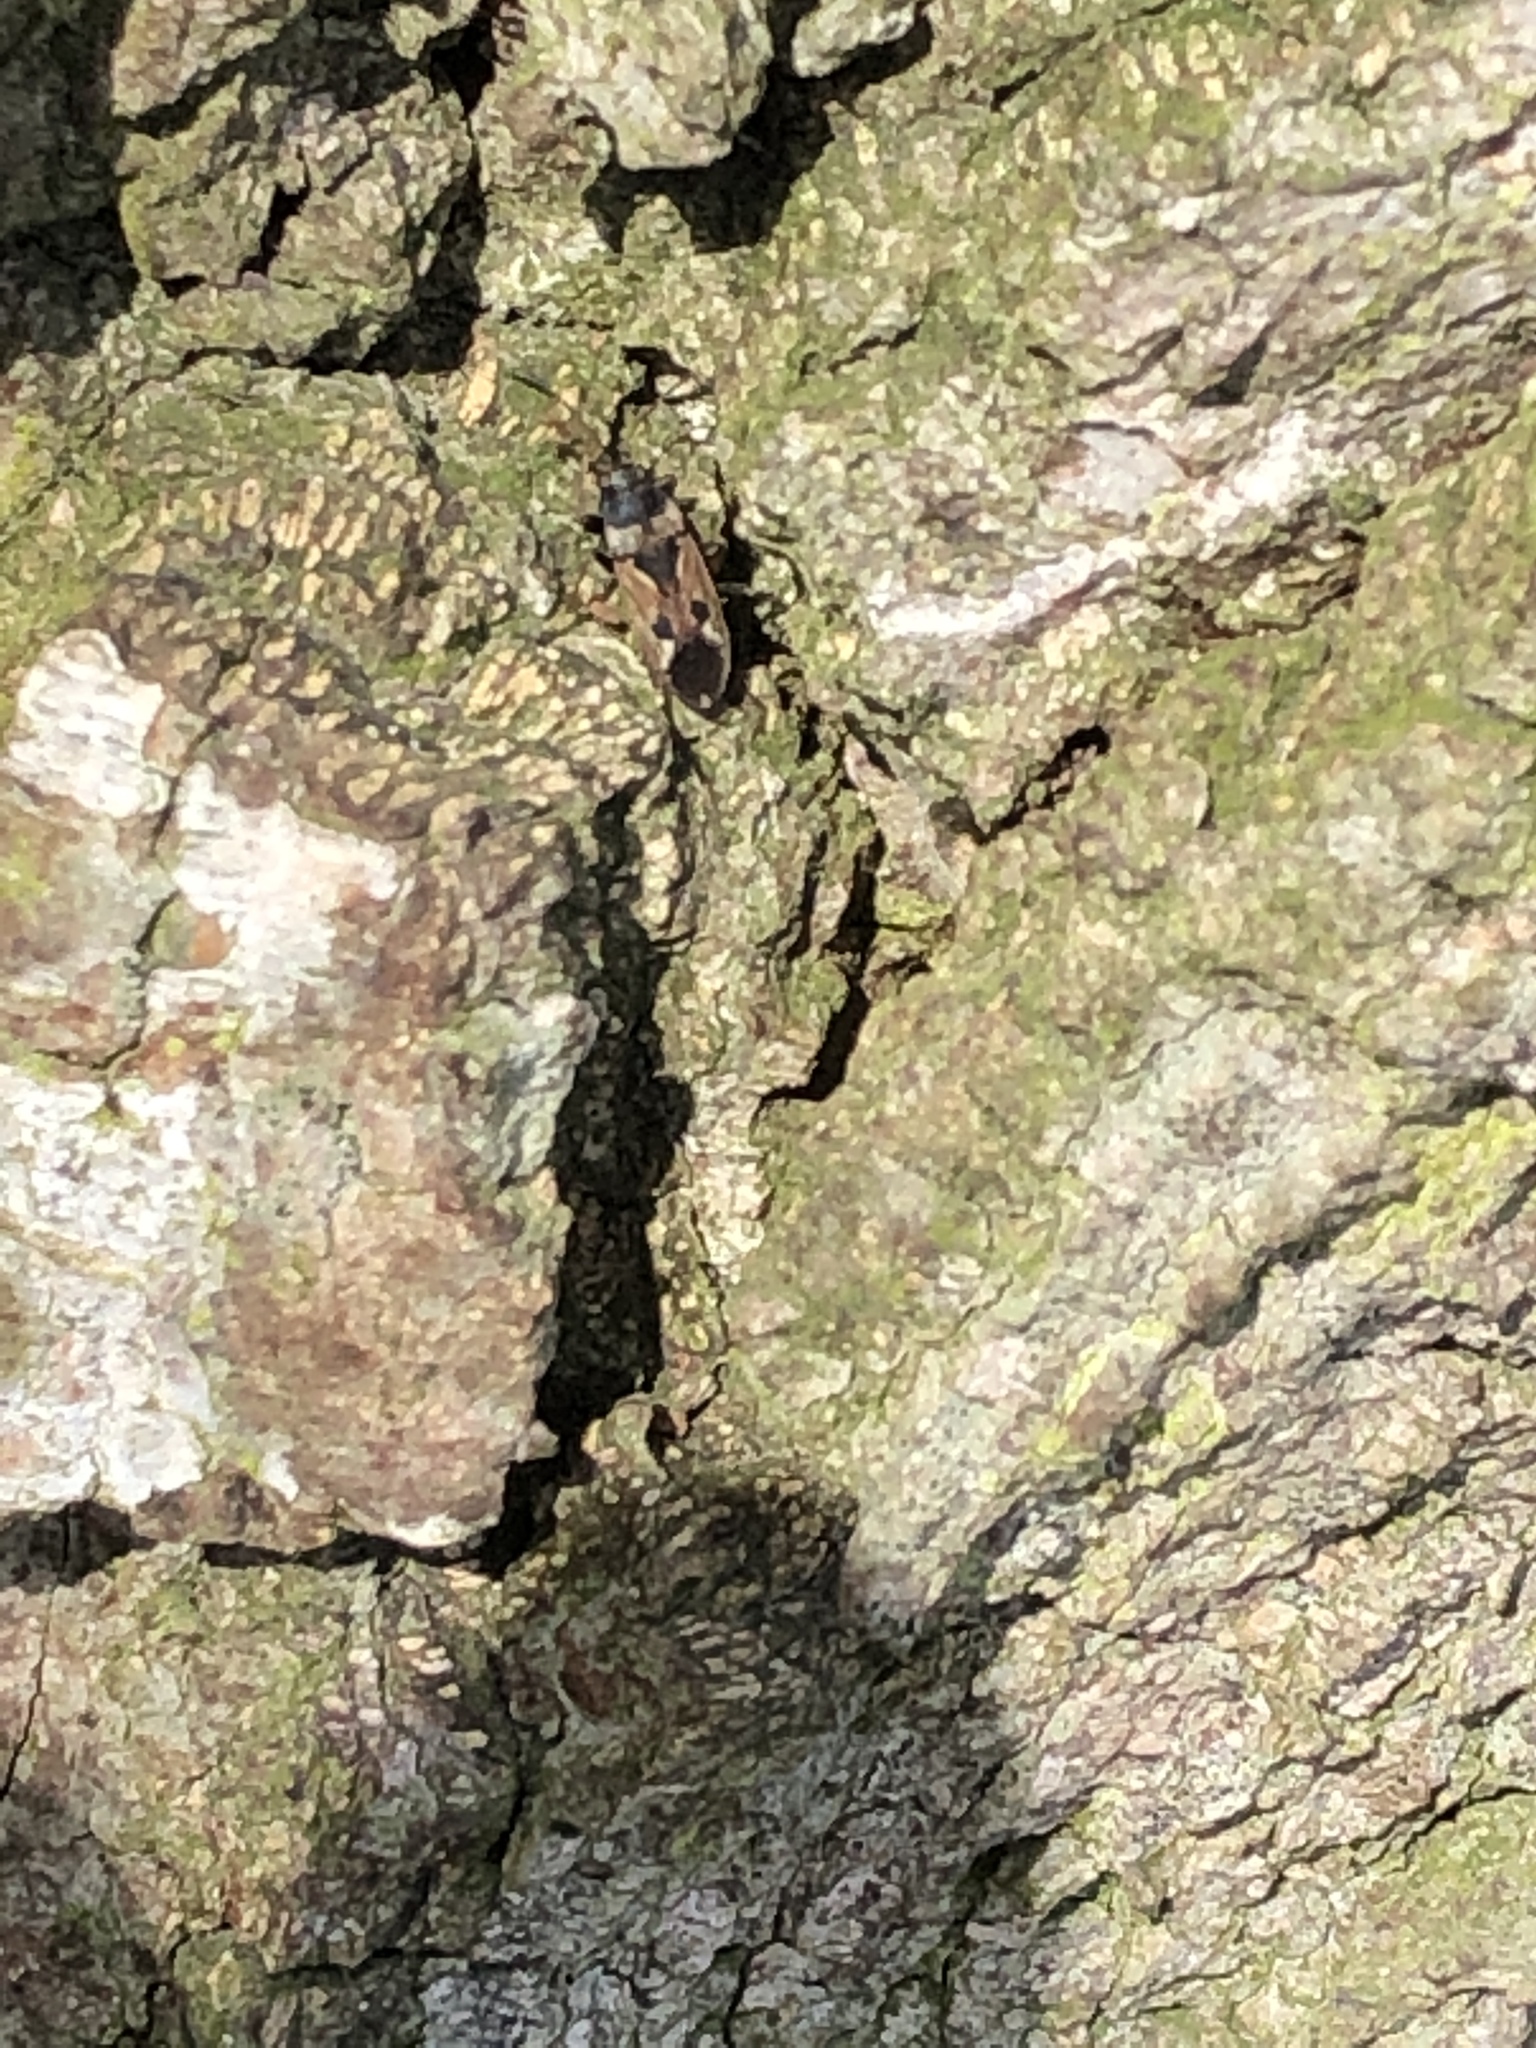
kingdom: Animalia
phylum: Arthropoda
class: Insecta
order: Hemiptera
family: Rhyparochromidae
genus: Rhyparochromus
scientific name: Rhyparochromus vulgaris
